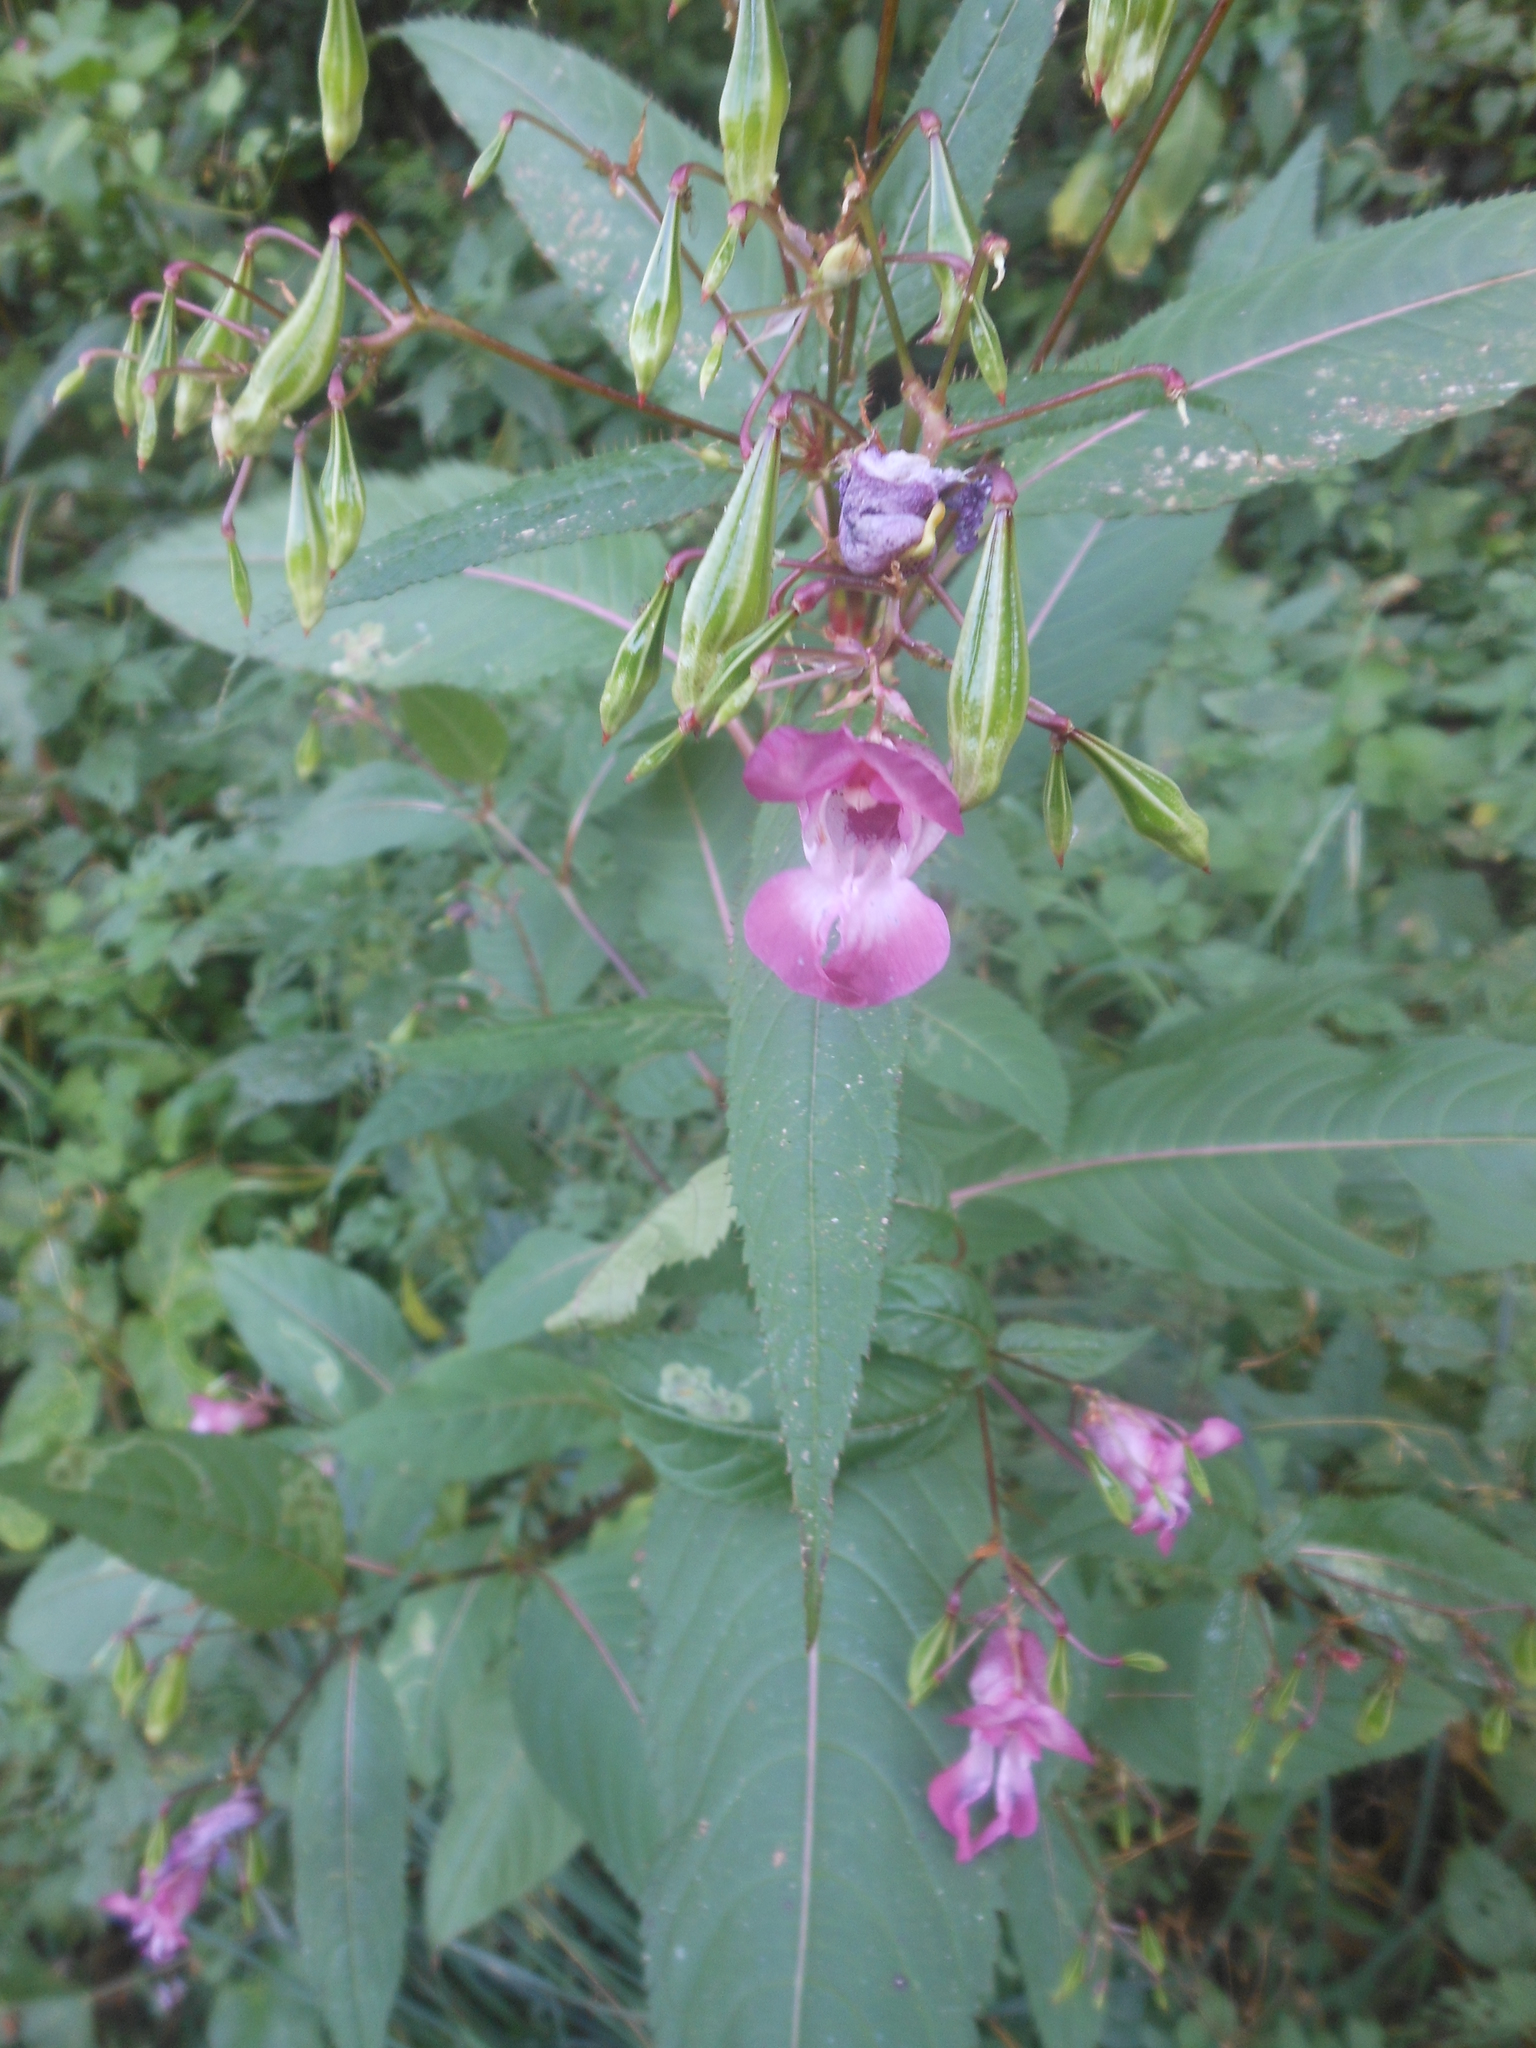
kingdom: Plantae
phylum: Tracheophyta
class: Magnoliopsida
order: Ericales
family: Balsaminaceae
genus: Impatiens
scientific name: Impatiens glandulifera
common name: Himalayan balsam
